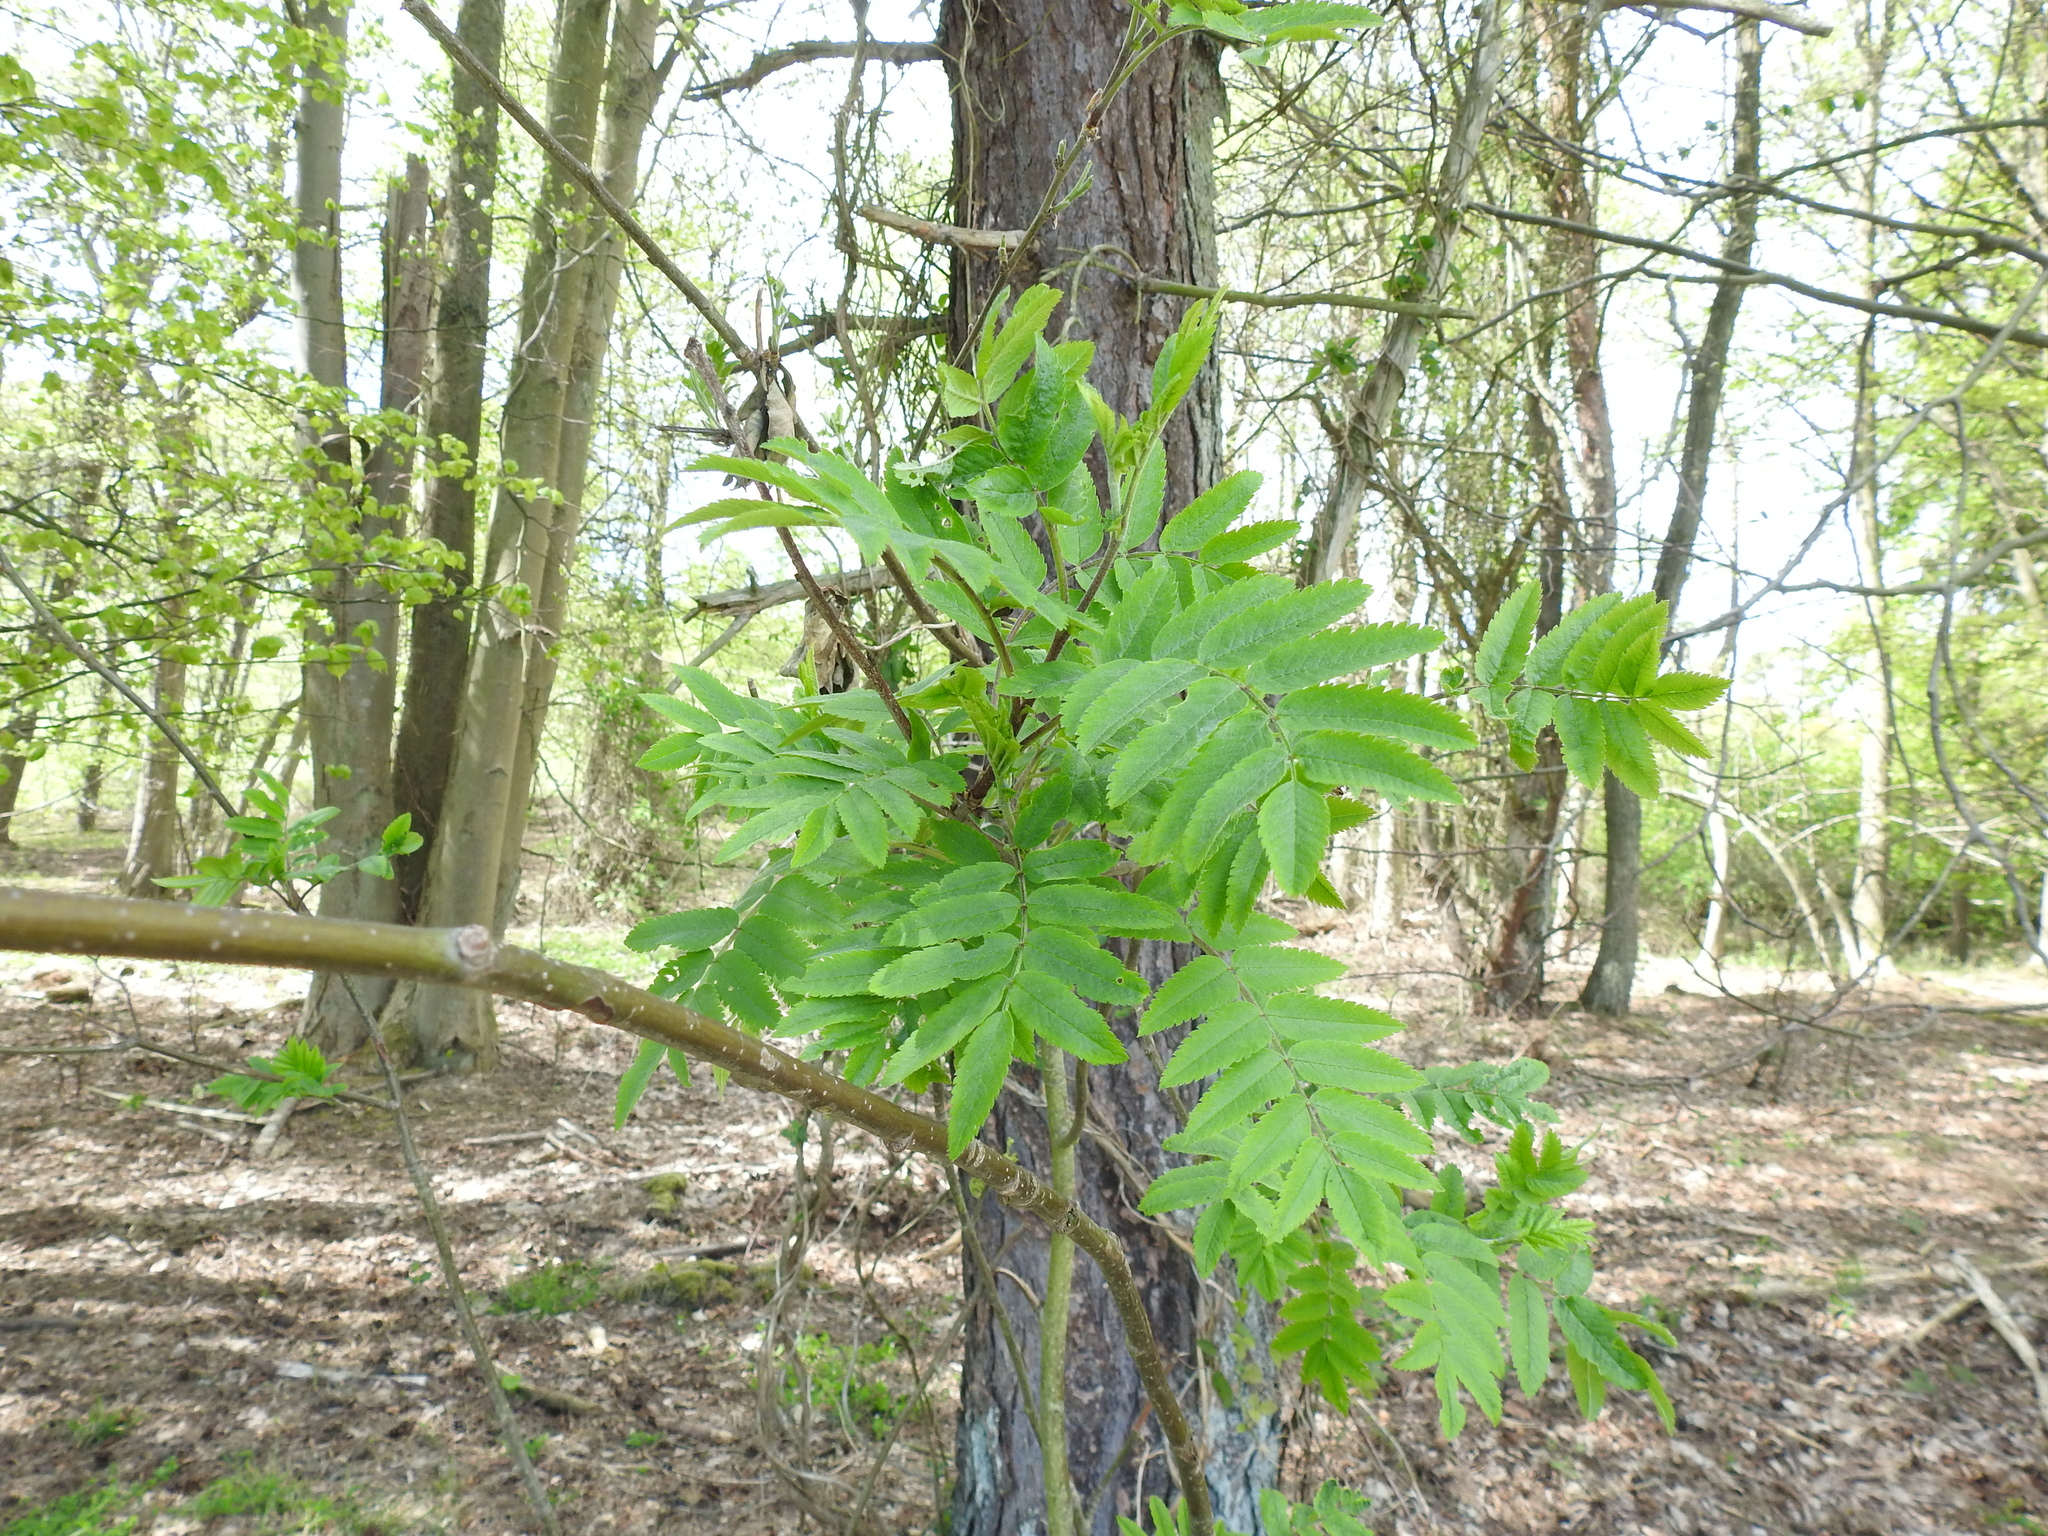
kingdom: Plantae
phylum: Tracheophyta
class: Magnoliopsida
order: Rosales
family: Rosaceae
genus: Sorbus
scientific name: Sorbus aucuparia
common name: Rowan
